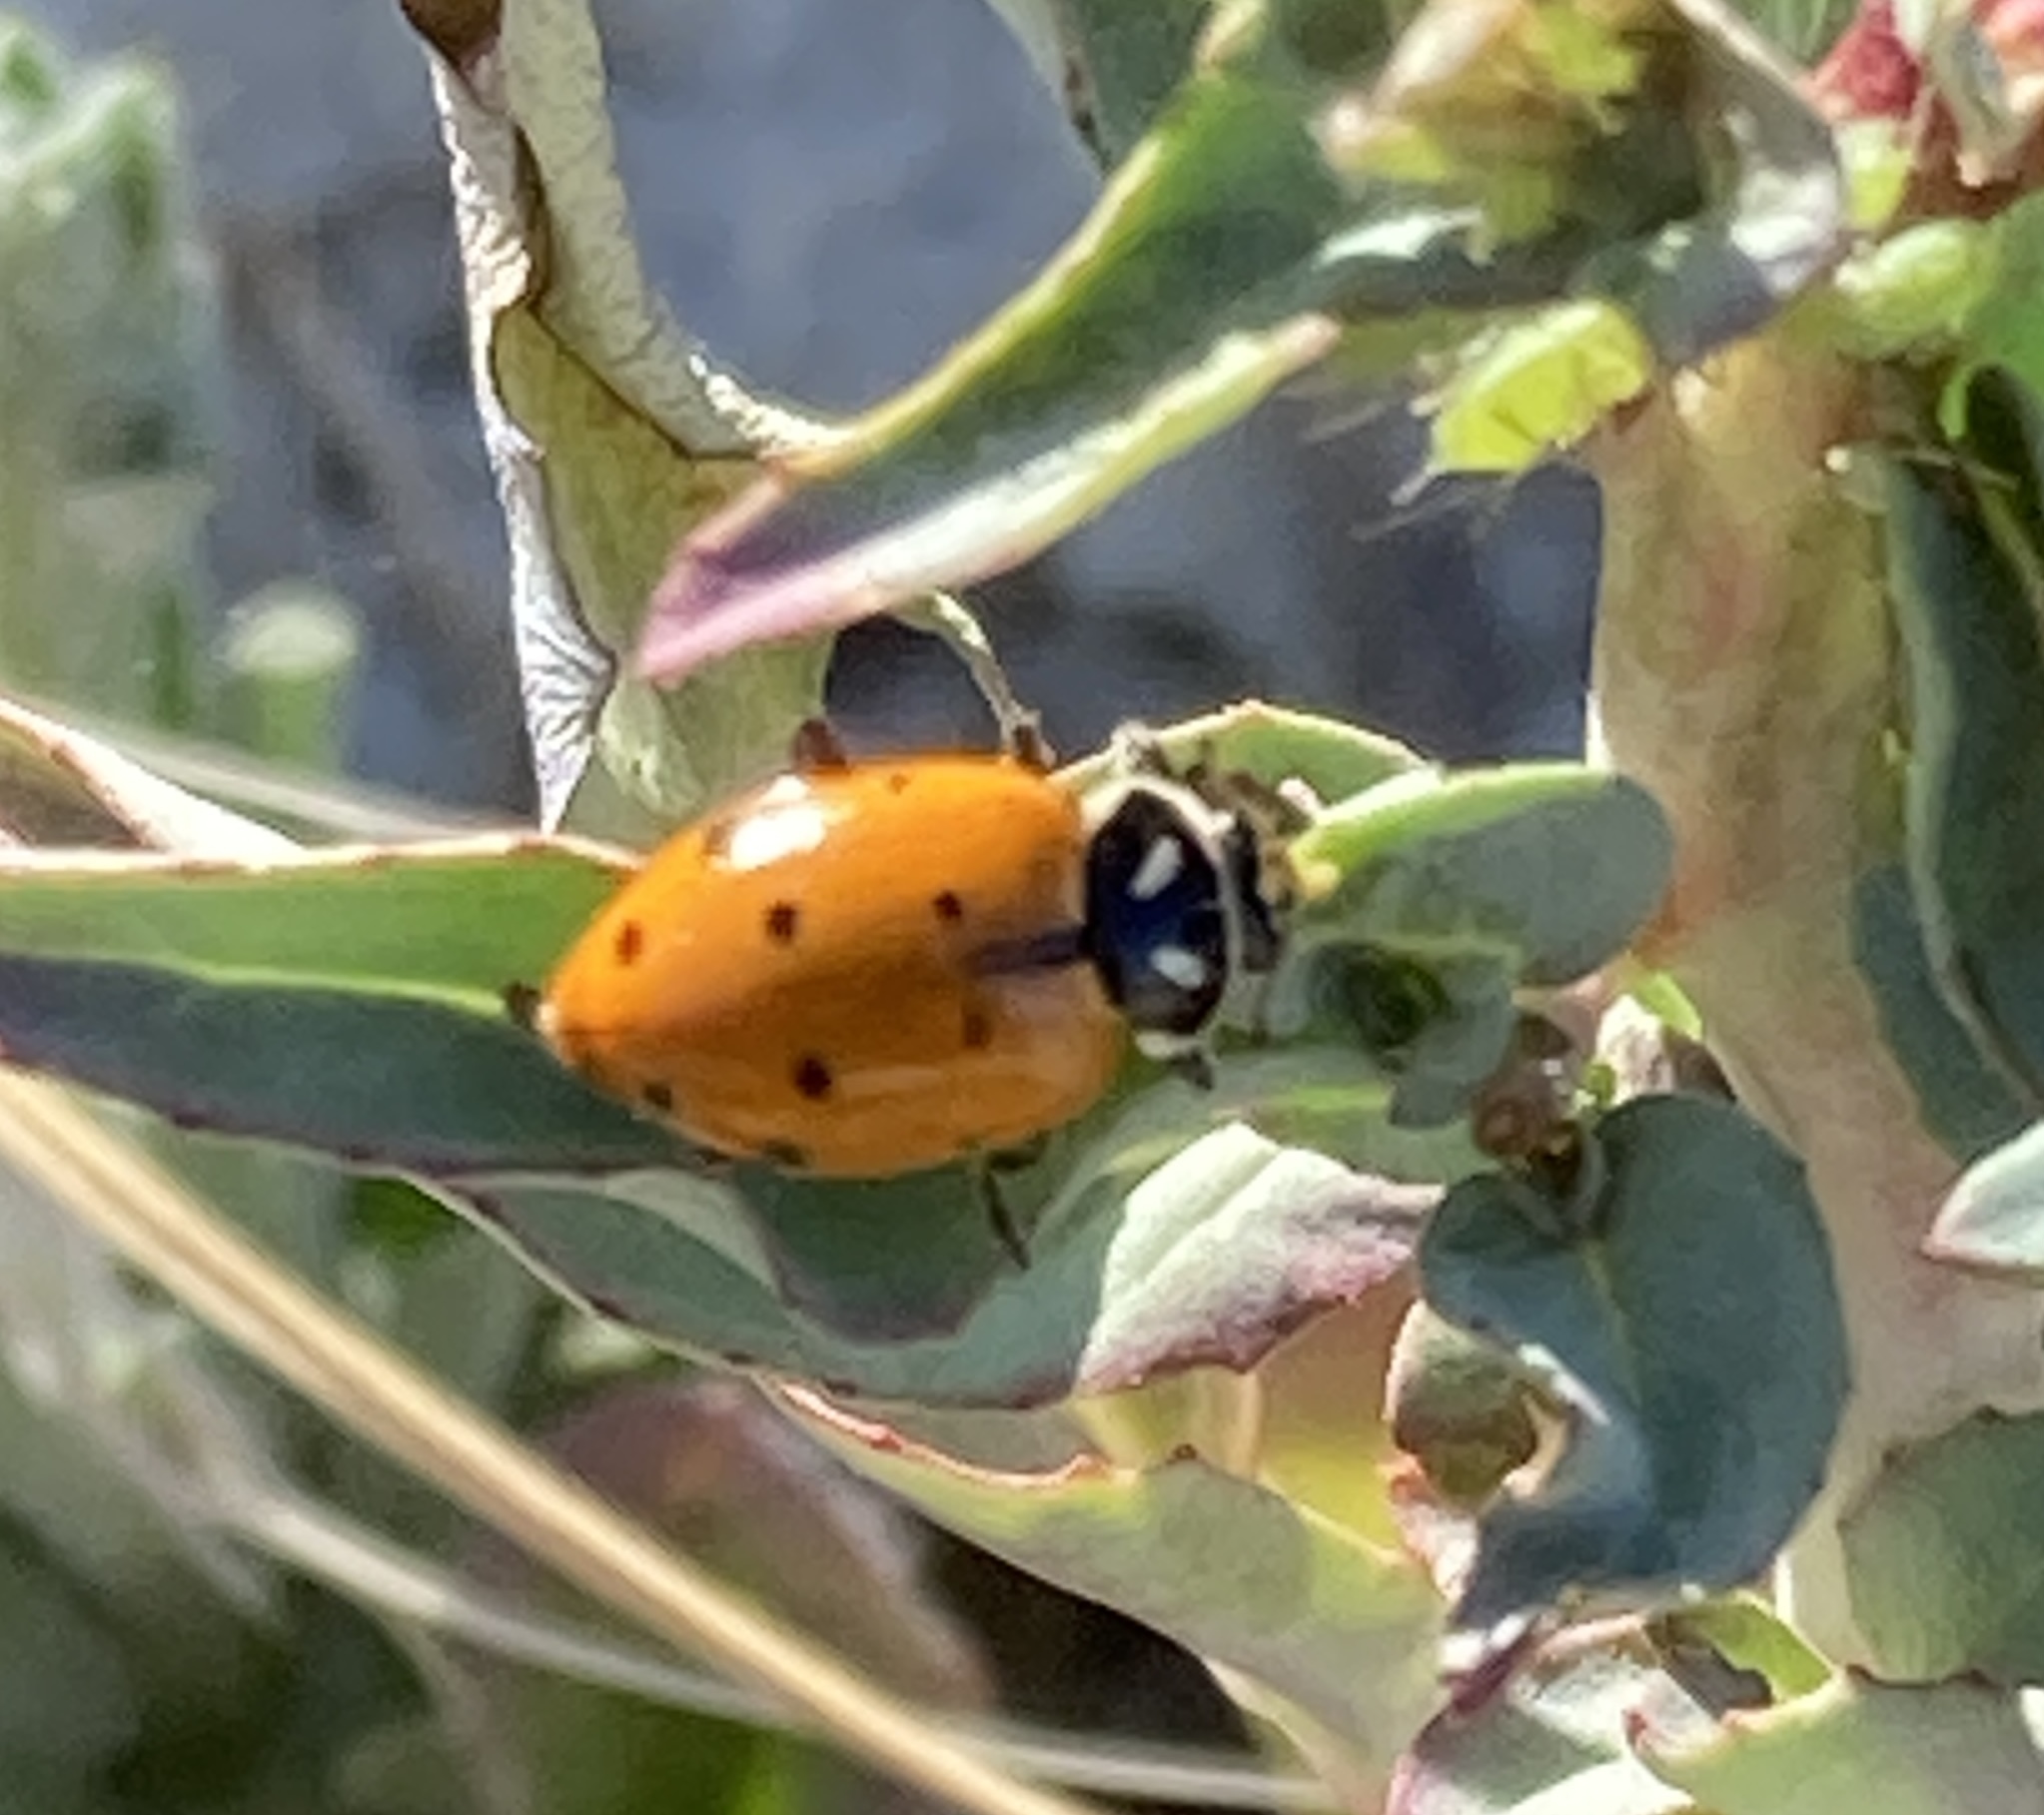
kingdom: Animalia
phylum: Arthropoda
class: Insecta
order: Coleoptera
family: Coccinellidae
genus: Hippodamia
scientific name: Hippodamia convergens
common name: Convergent lady beetle
